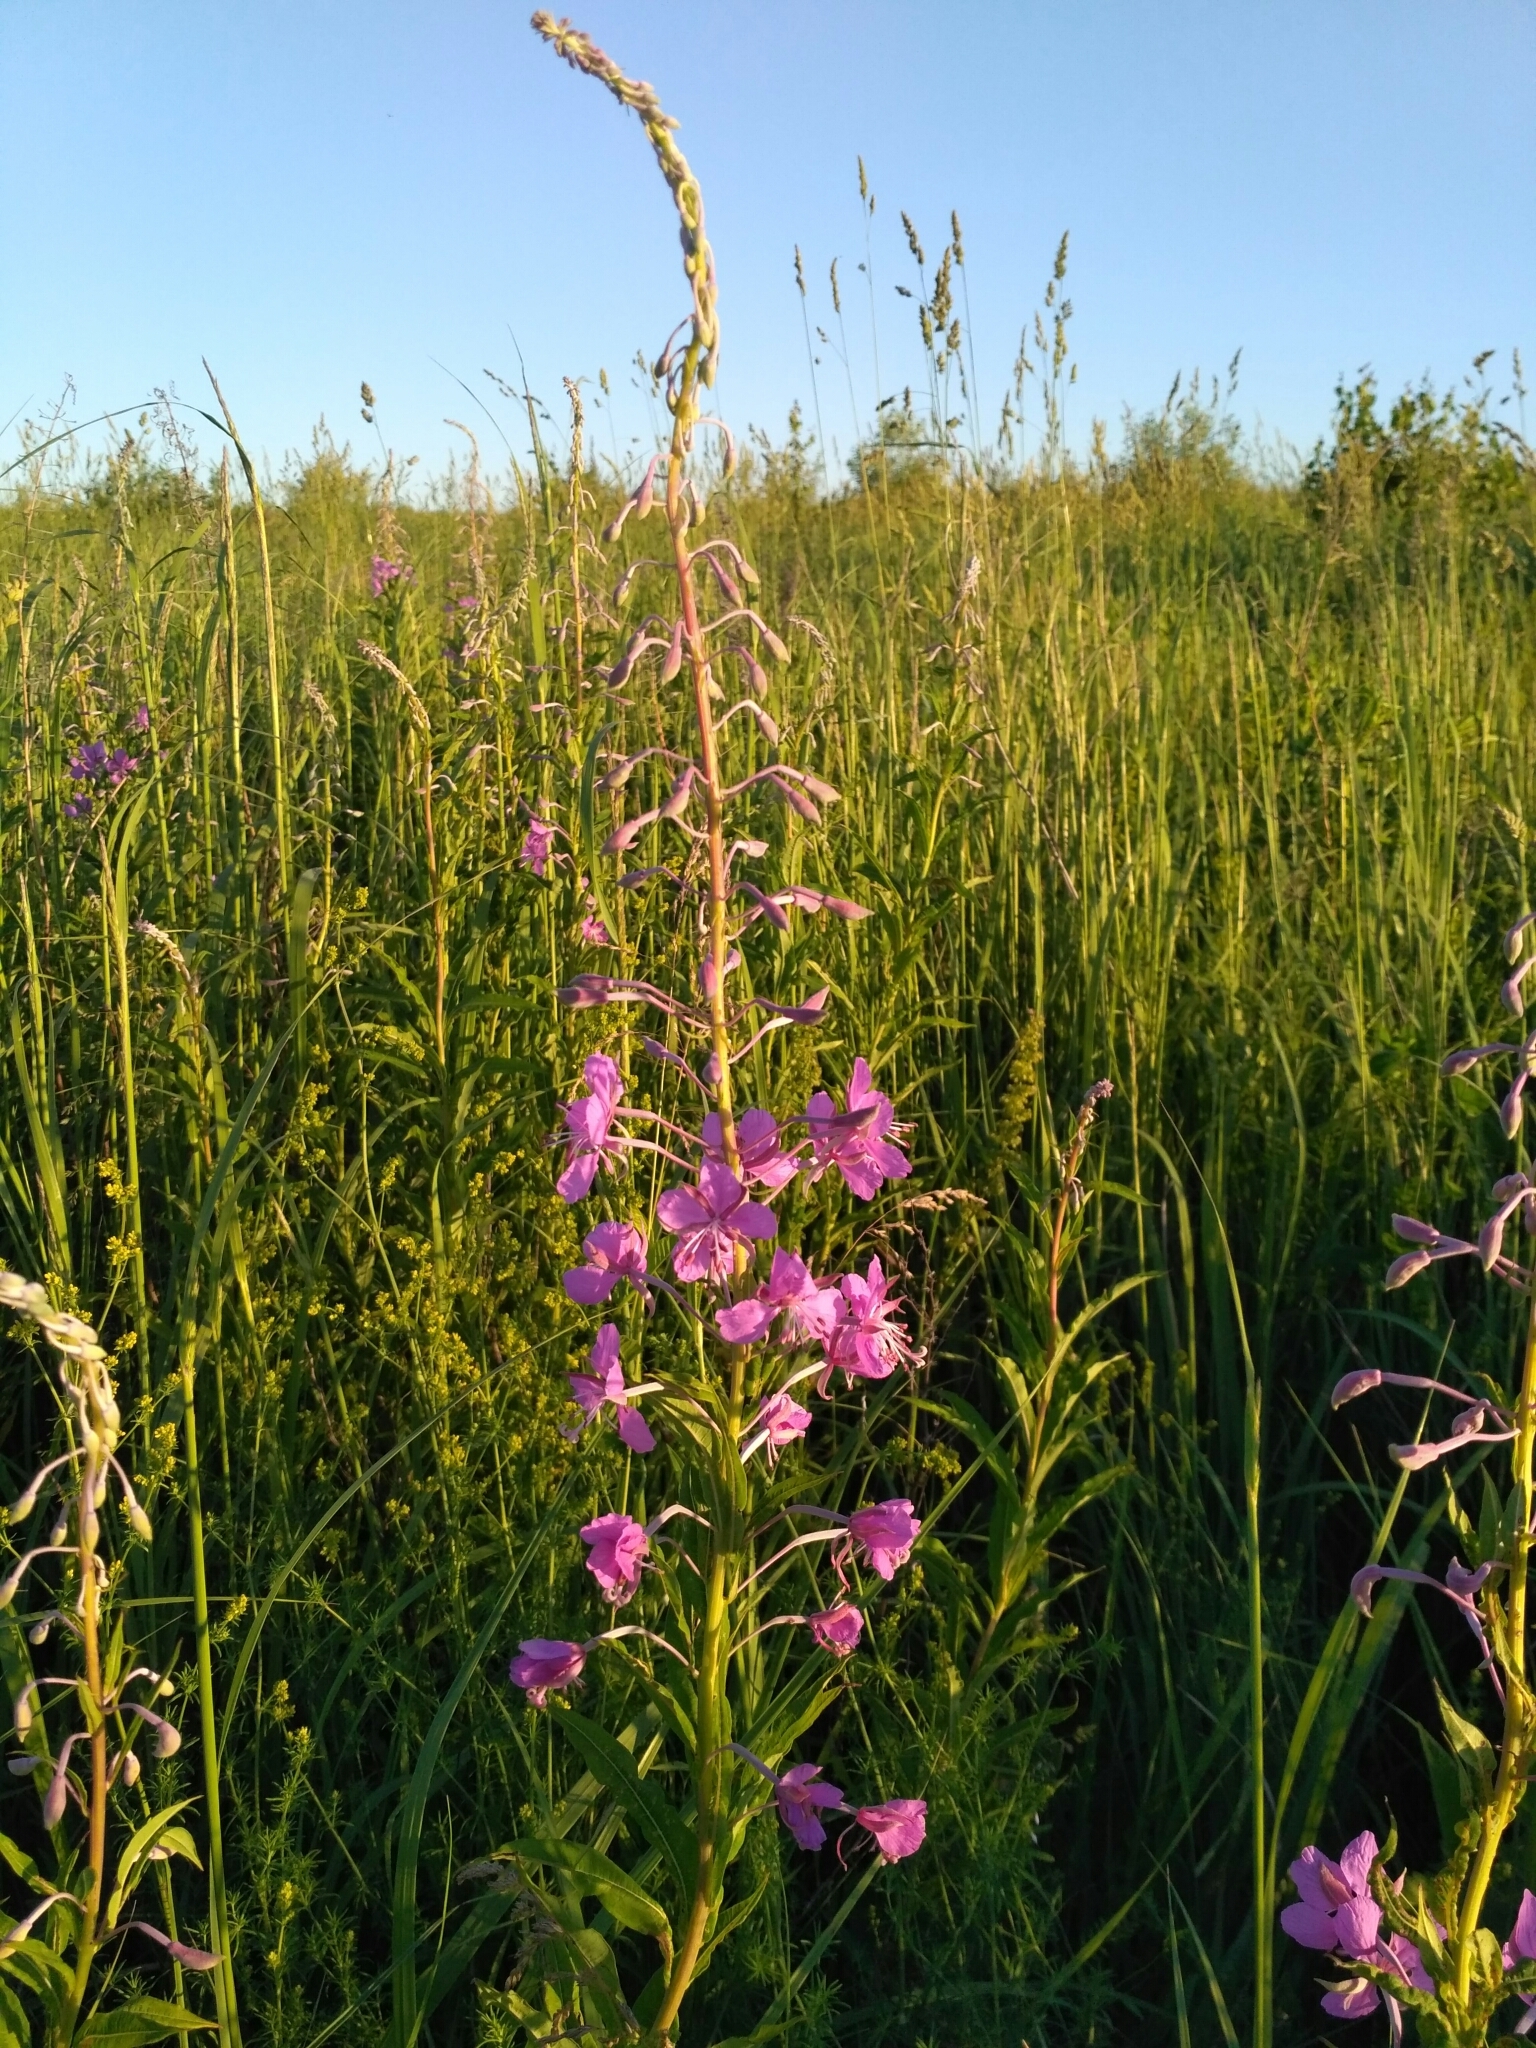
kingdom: Plantae
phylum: Tracheophyta
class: Magnoliopsida
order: Myrtales
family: Onagraceae
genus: Chamaenerion
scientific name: Chamaenerion angustifolium
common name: Fireweed
